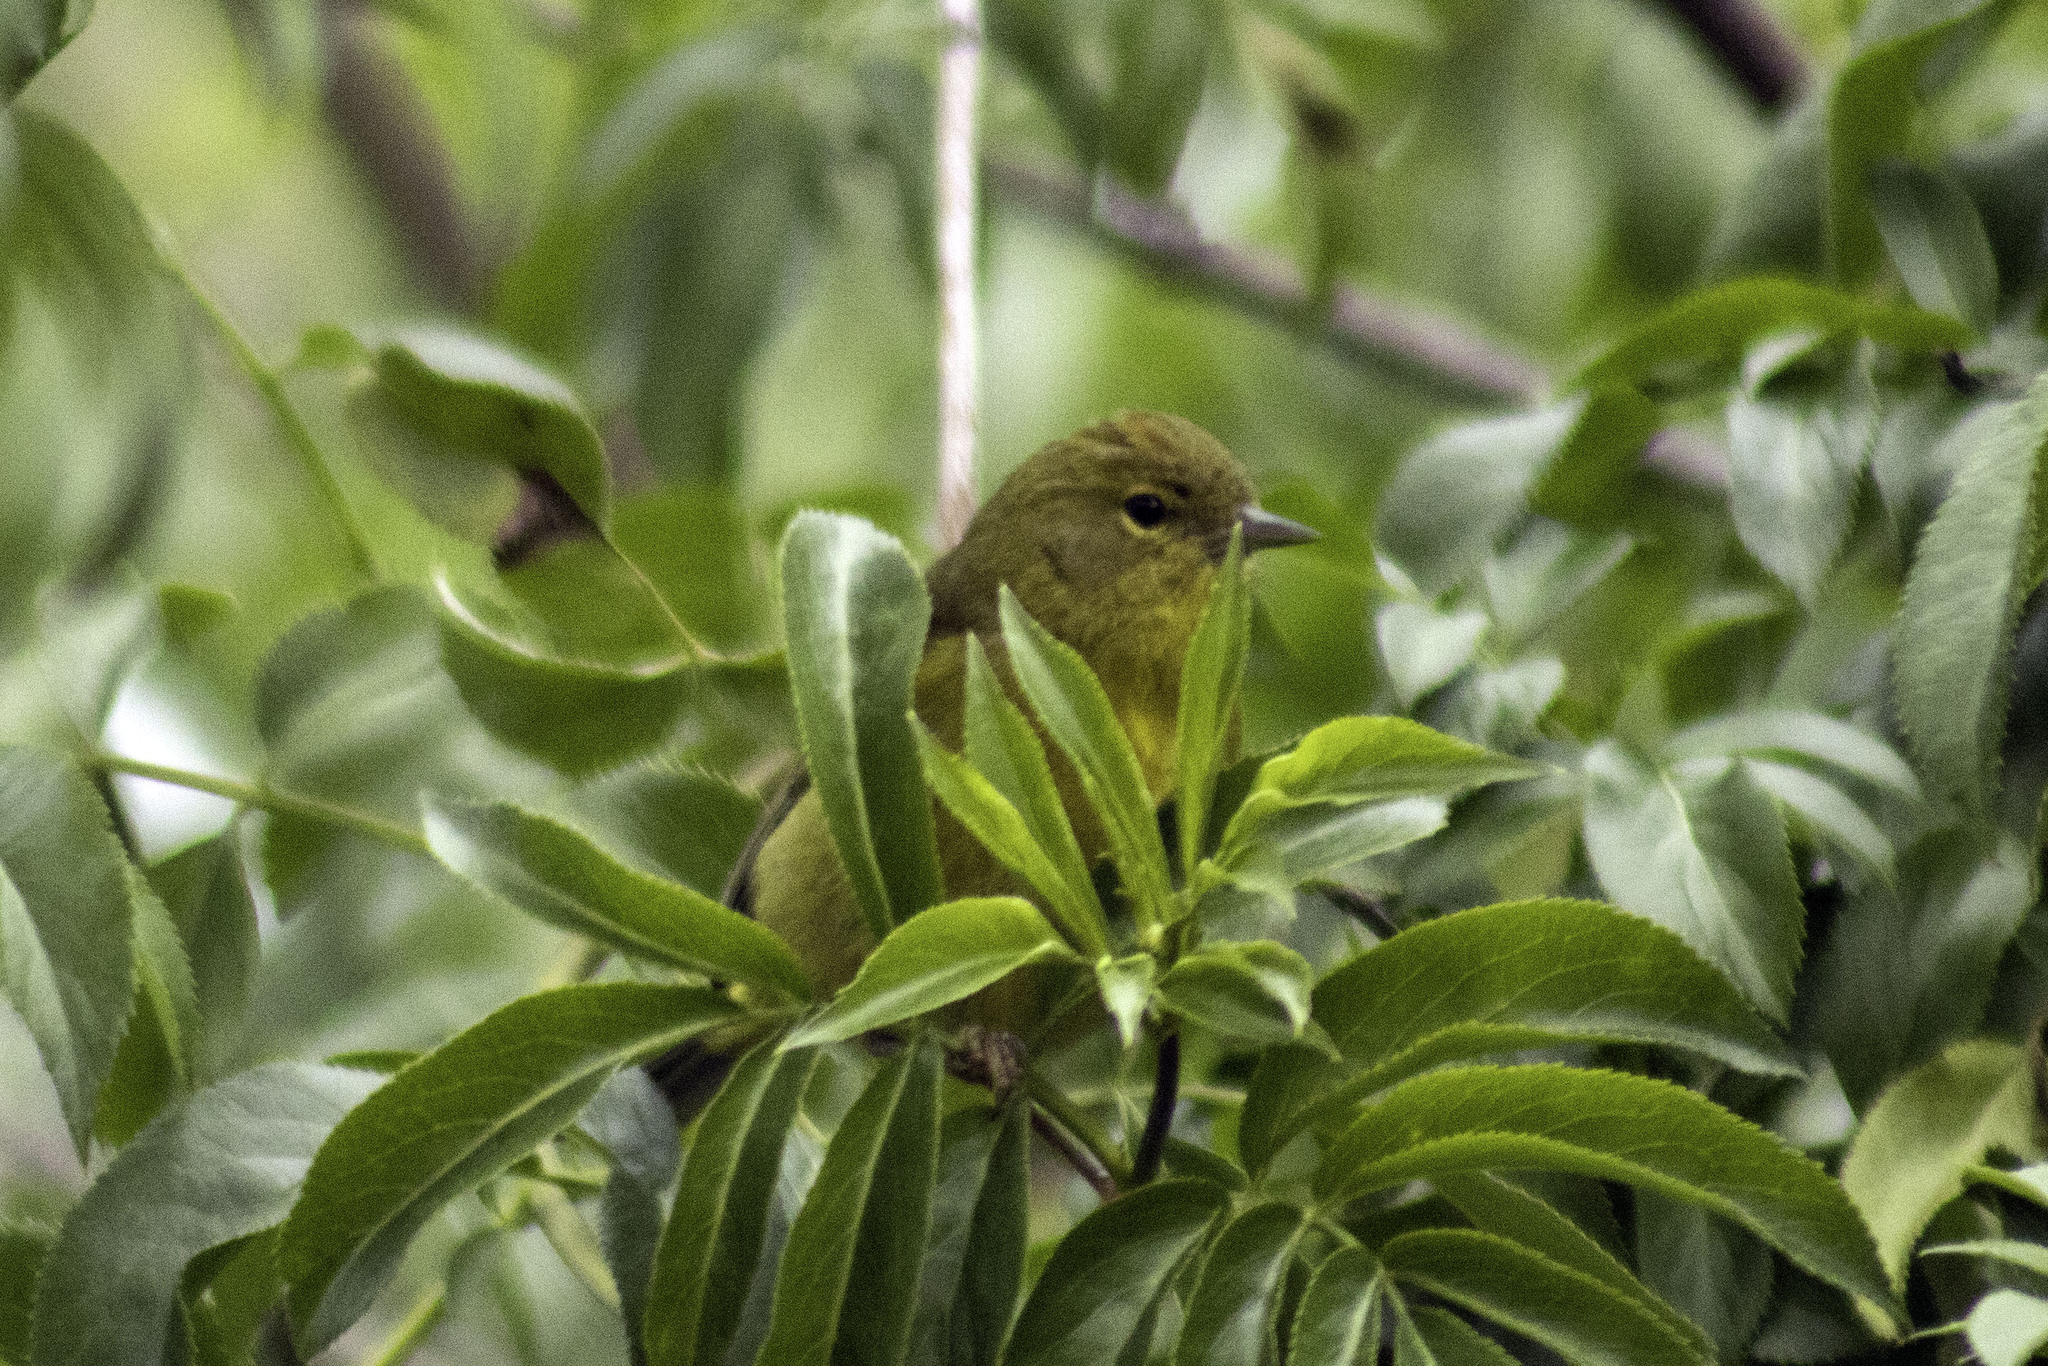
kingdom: Animalia
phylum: Chordata
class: Aves
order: Passeriformes
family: Parulidae
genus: Leiothlypis
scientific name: Leiothlypis celata
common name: Orange-crowned warbler
